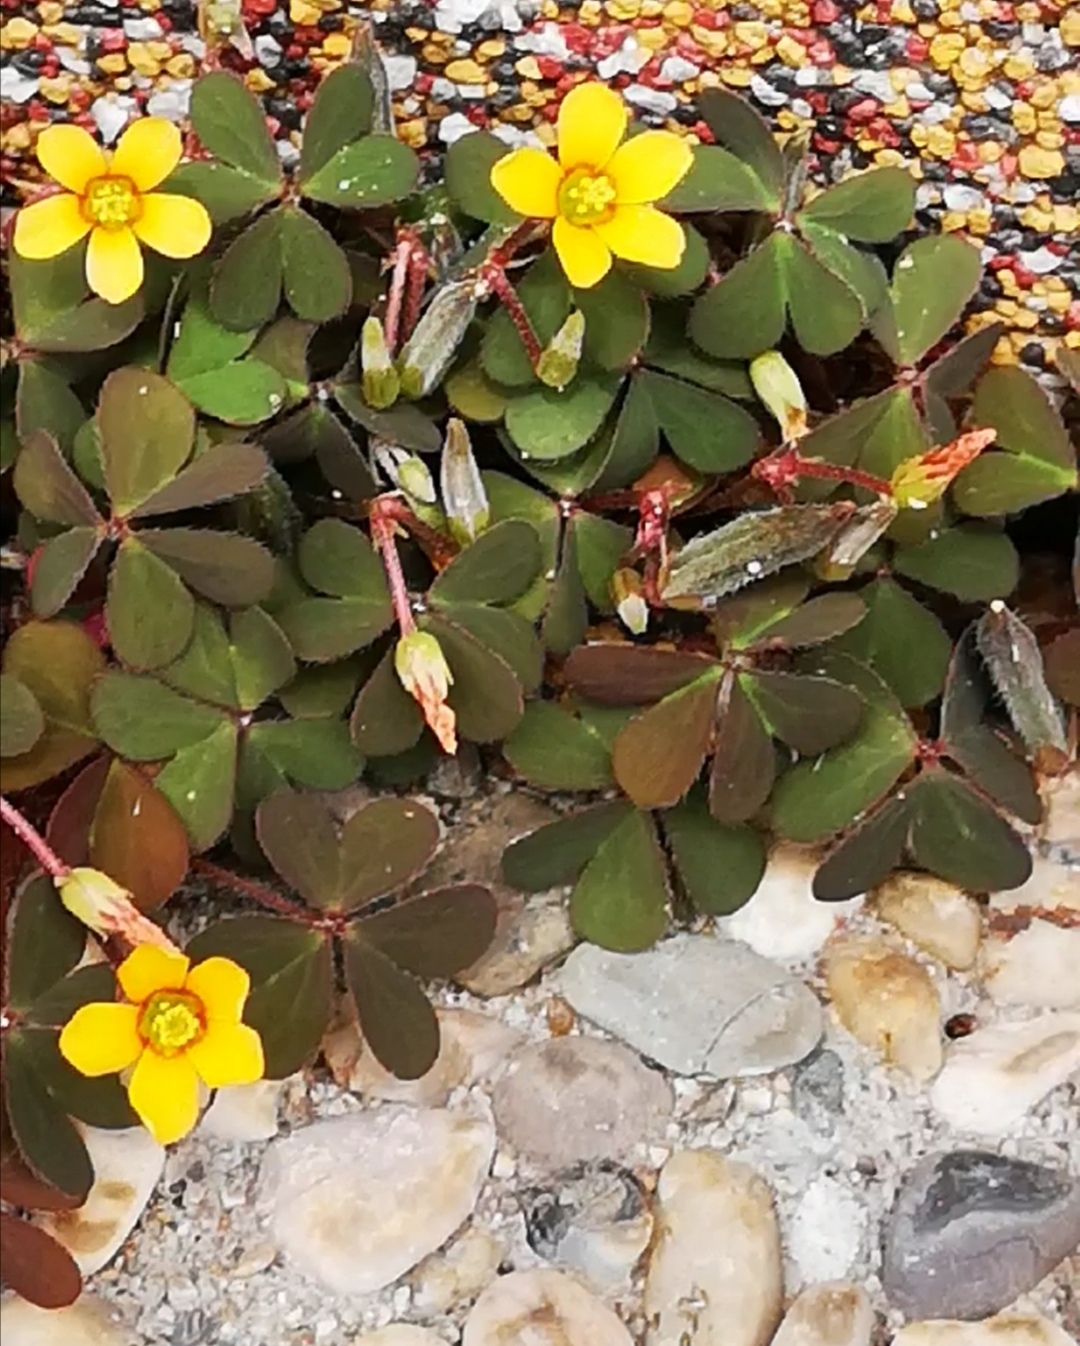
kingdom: Plantae
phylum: Tracheophyta
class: Magnoliopsida
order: Oxalidales
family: Oxalidaceae
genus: Oxalis
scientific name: Oxalis corniculata
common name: Procumbent yellow-sorrel
